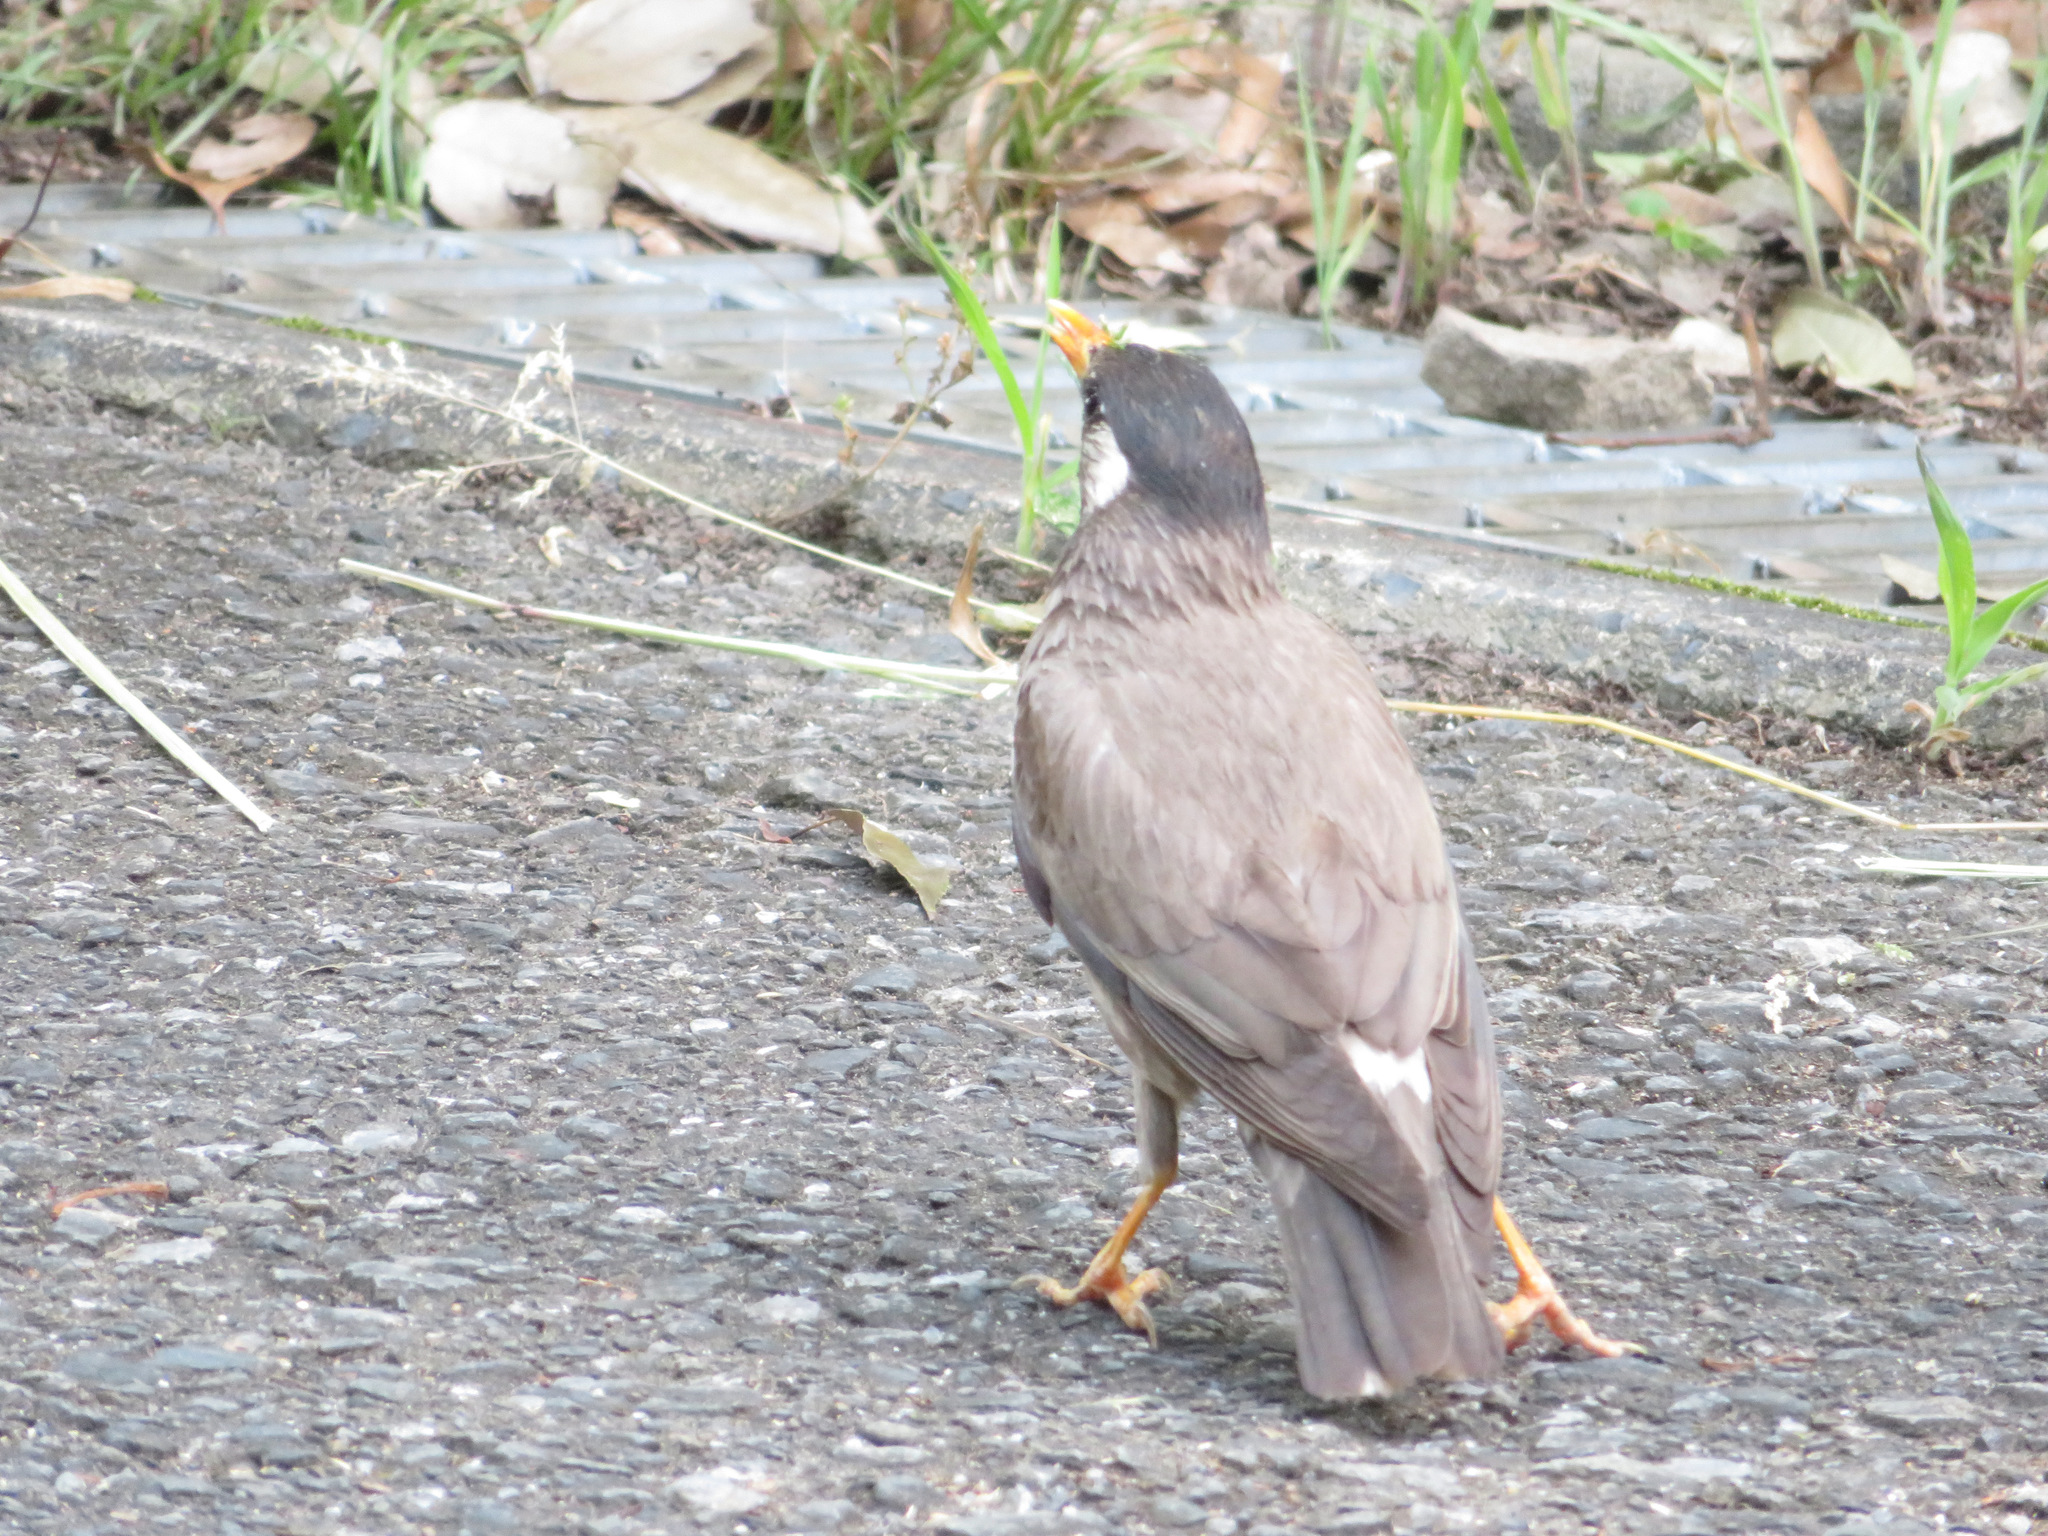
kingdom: Animalia
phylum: Chordata
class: Aves
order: Passeriformes
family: Sturnidae
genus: Spodiopsar
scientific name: Spodiopsar cineraceus
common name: White-cheeked starling
